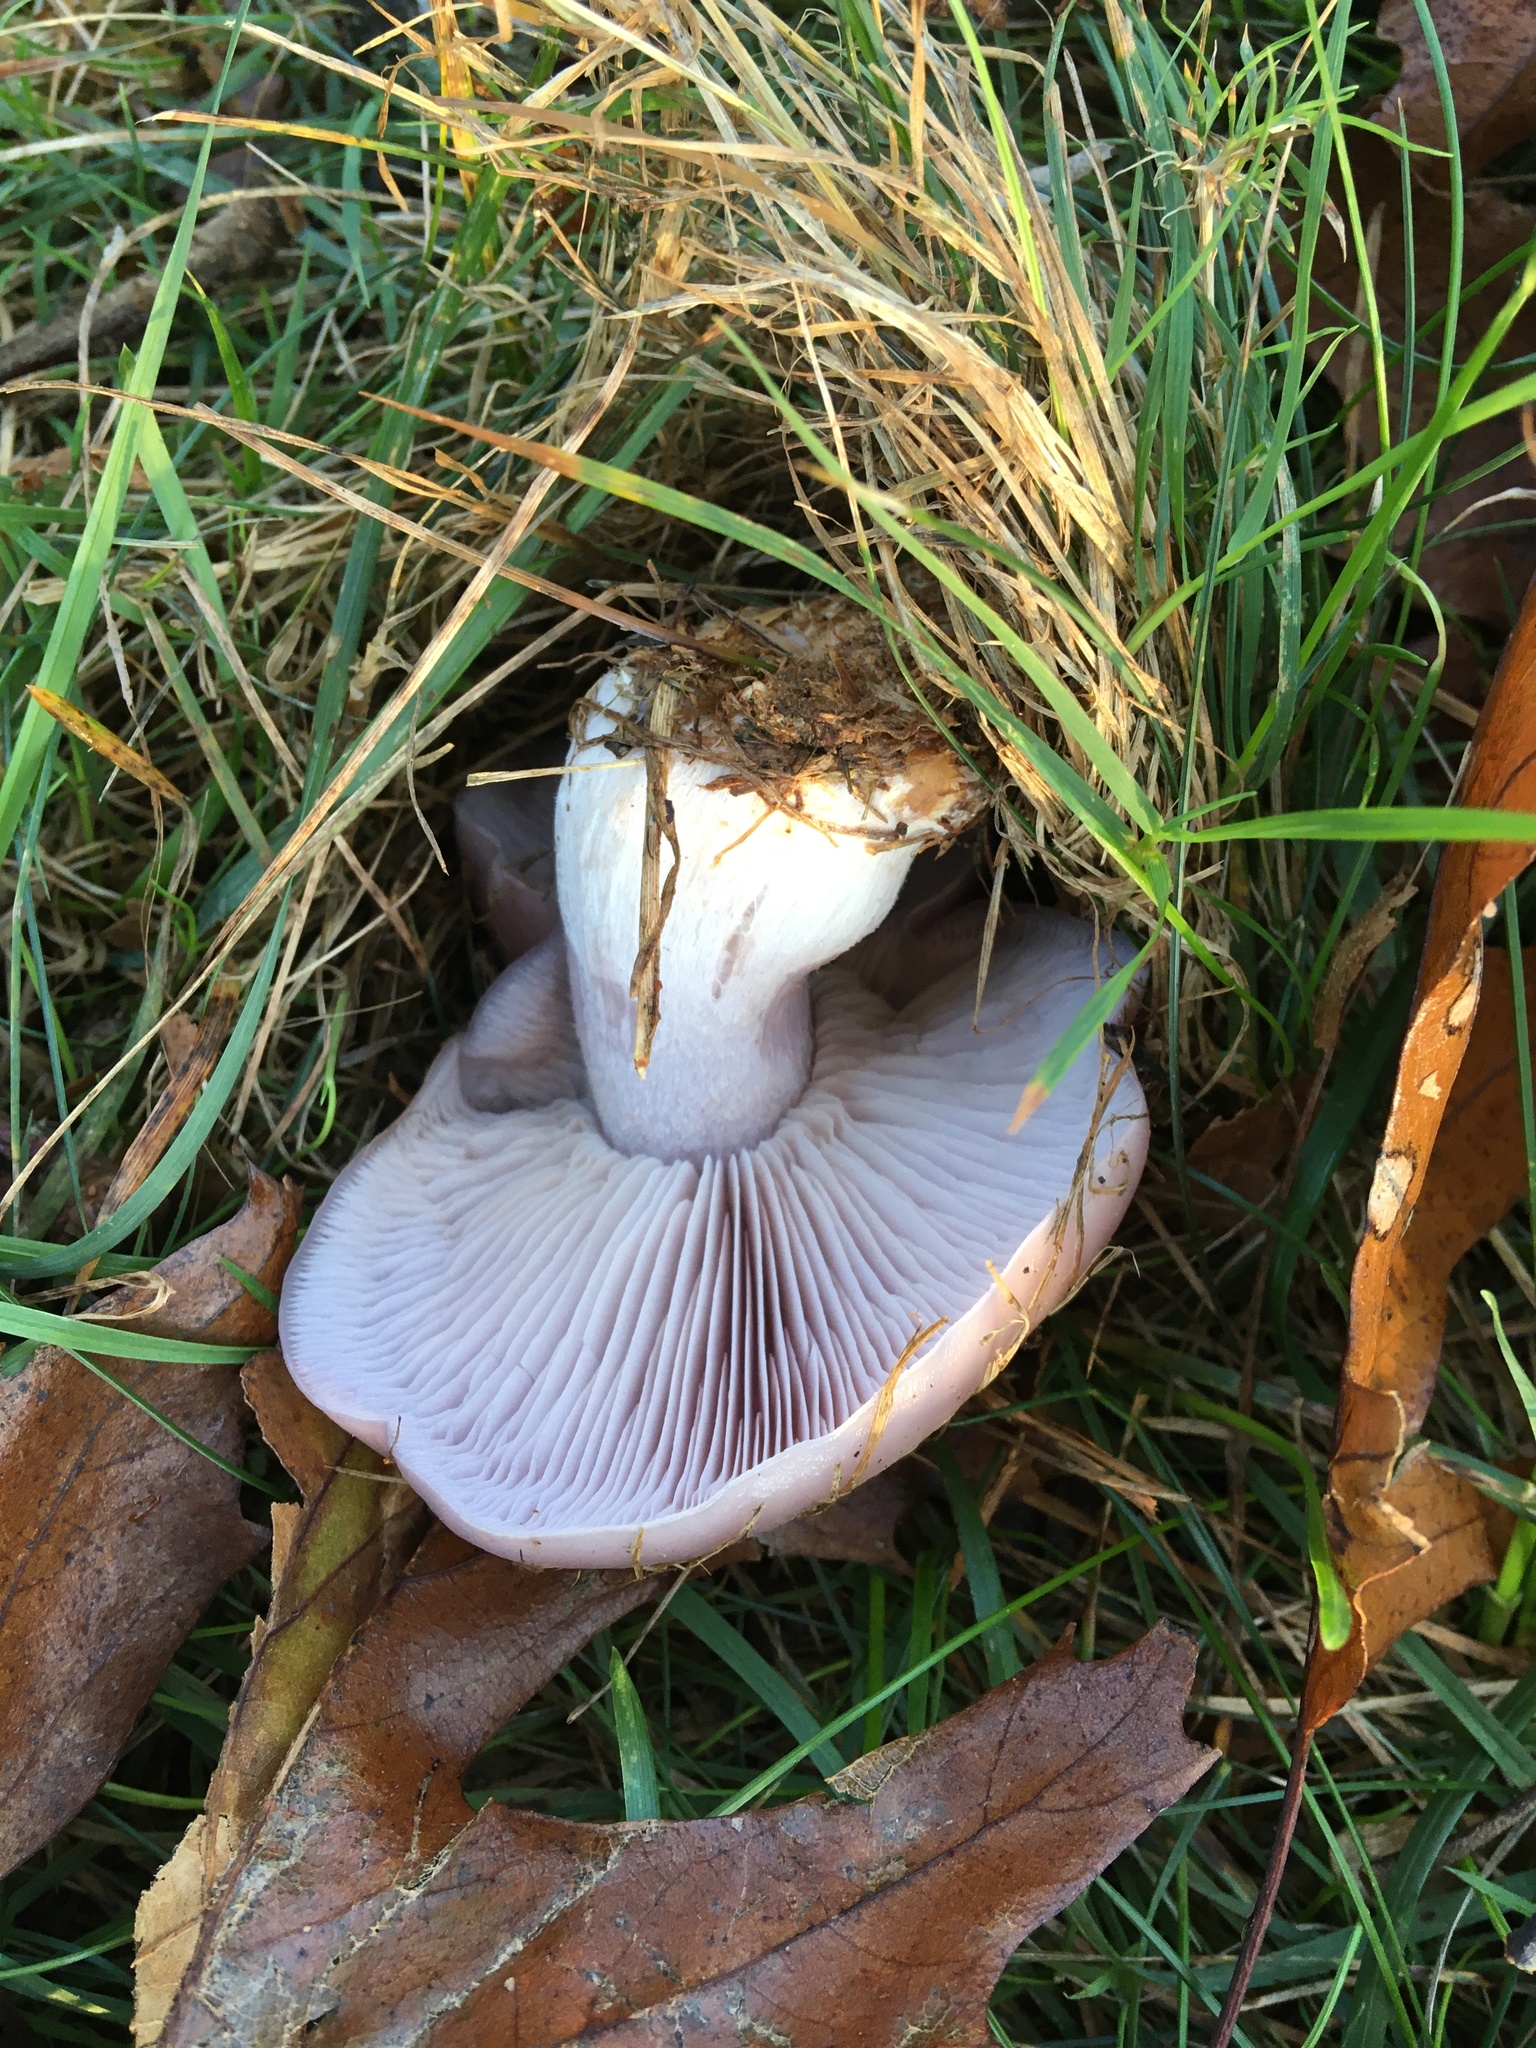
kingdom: Fungi
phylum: Basidiomycota
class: Agaricomycetes
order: Agaricales
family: Tricholomataceae
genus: Collybia
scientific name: Collybia
